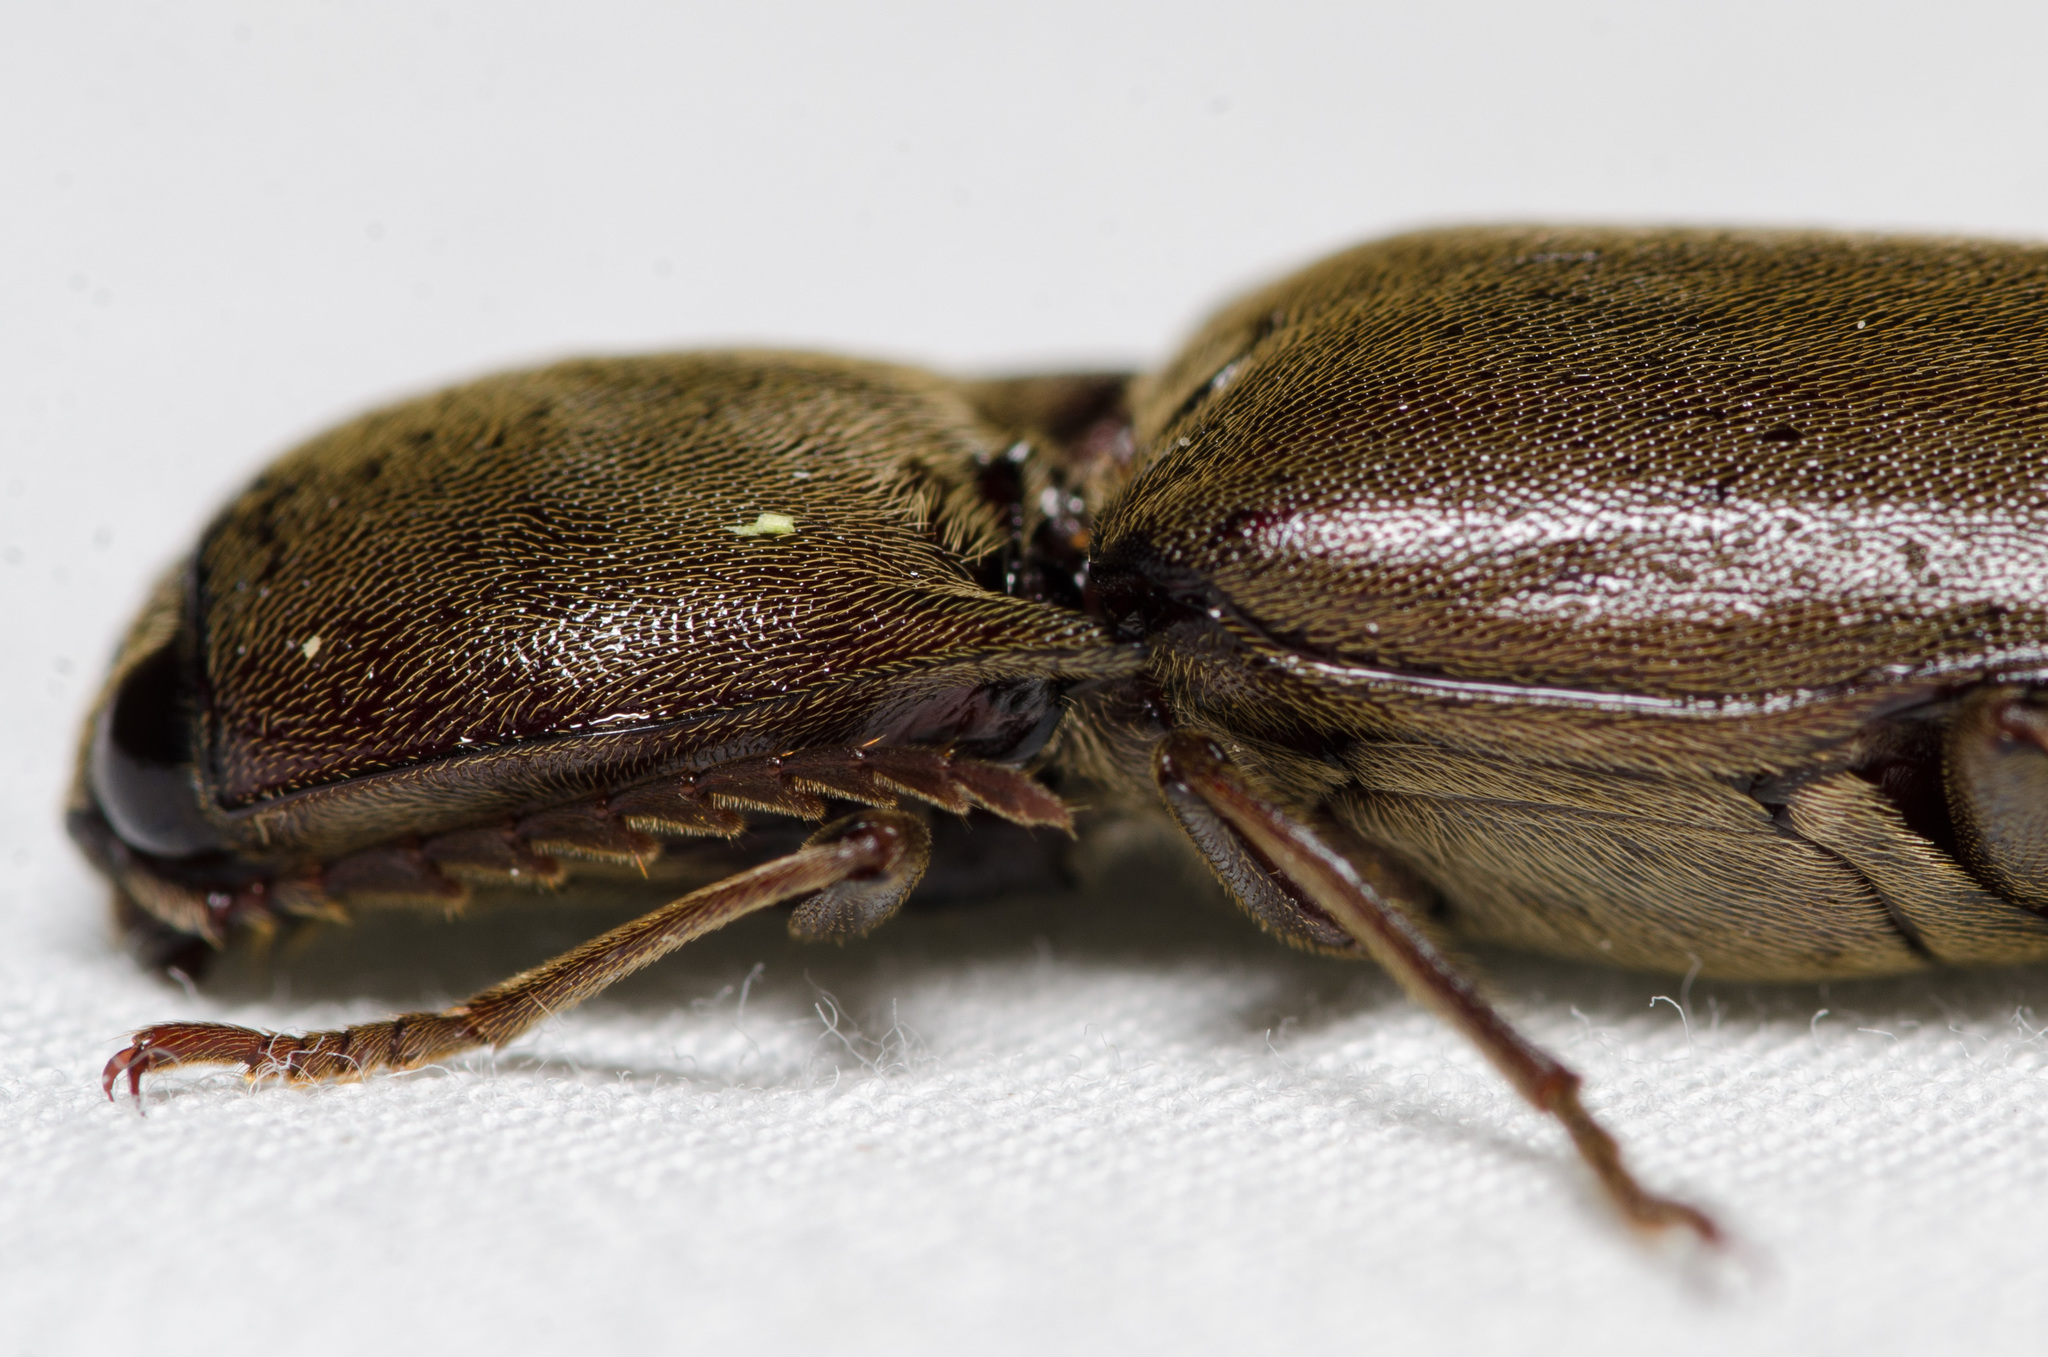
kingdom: Animalia
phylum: Arthropoda
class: Insecta
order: Coleoptera
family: Elateridae
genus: Orthostethus
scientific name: Orthostethus infuscatus
